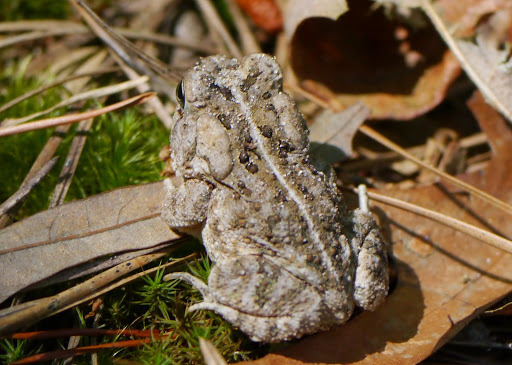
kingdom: Animalia
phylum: Chordata
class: Amphibia
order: Anura
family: Bufonidae
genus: Anaxyrus
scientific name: Anaxyrus fowleri
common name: Fowler's toad
